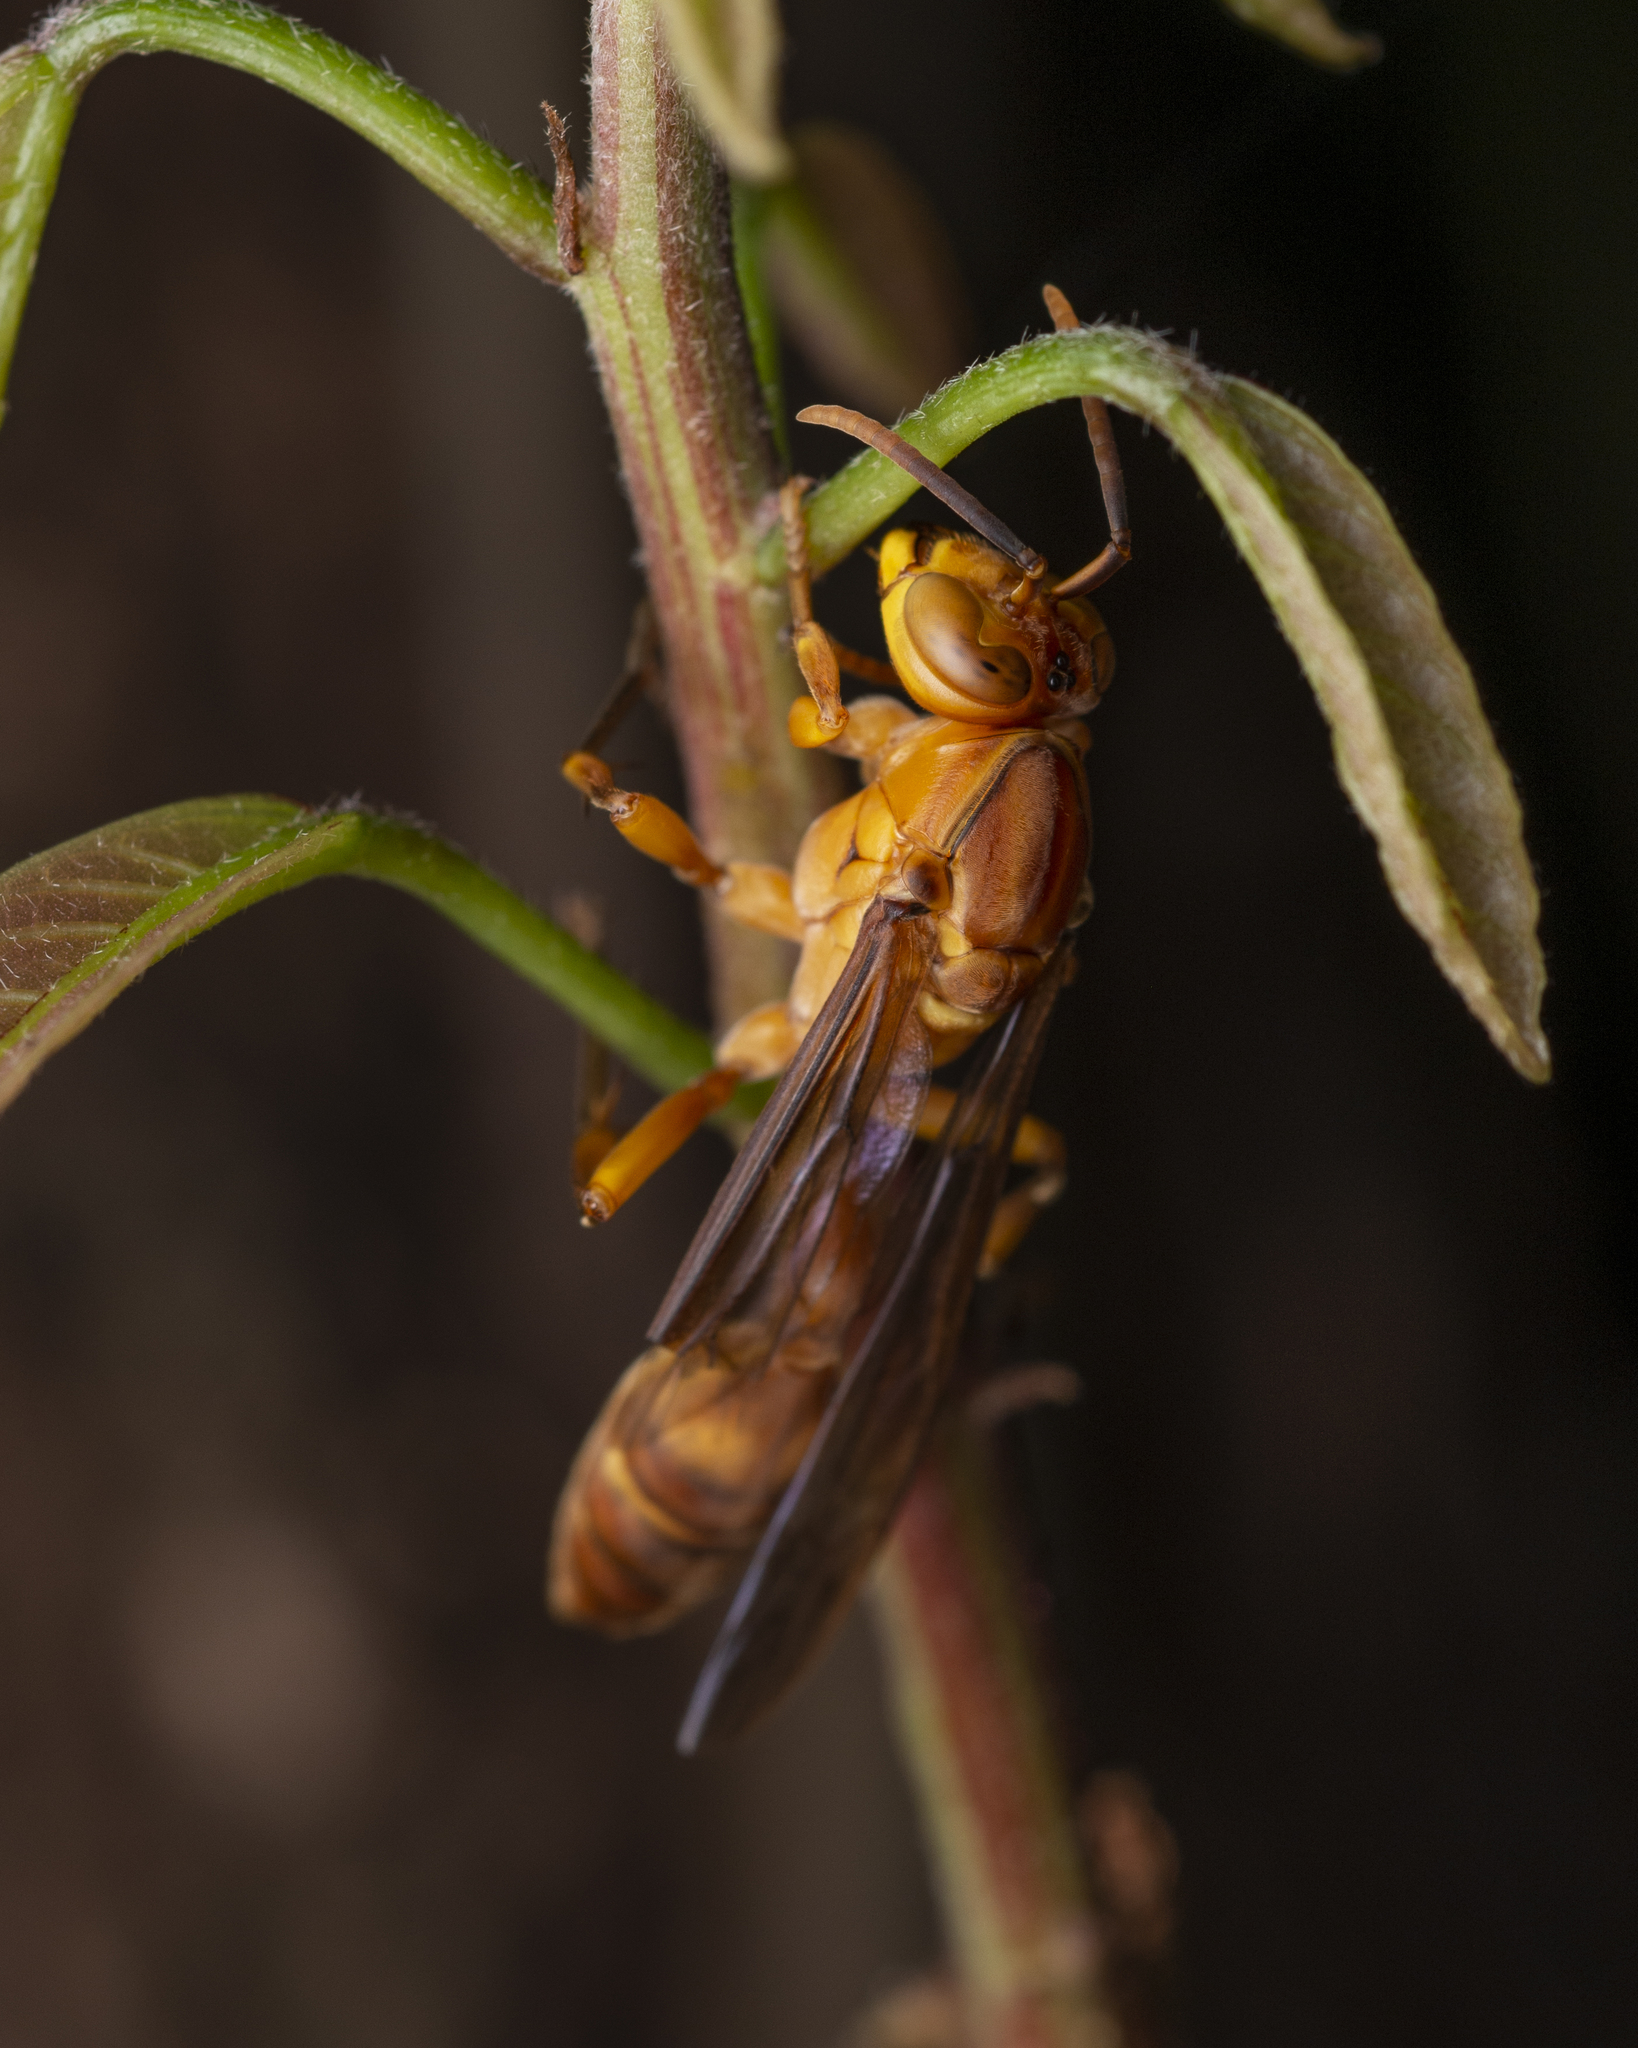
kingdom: Animalia
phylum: Arthropoda
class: Insecta
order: Hymenoptera
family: Vespidae
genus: Parapolybia
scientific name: Parapolybia indica
